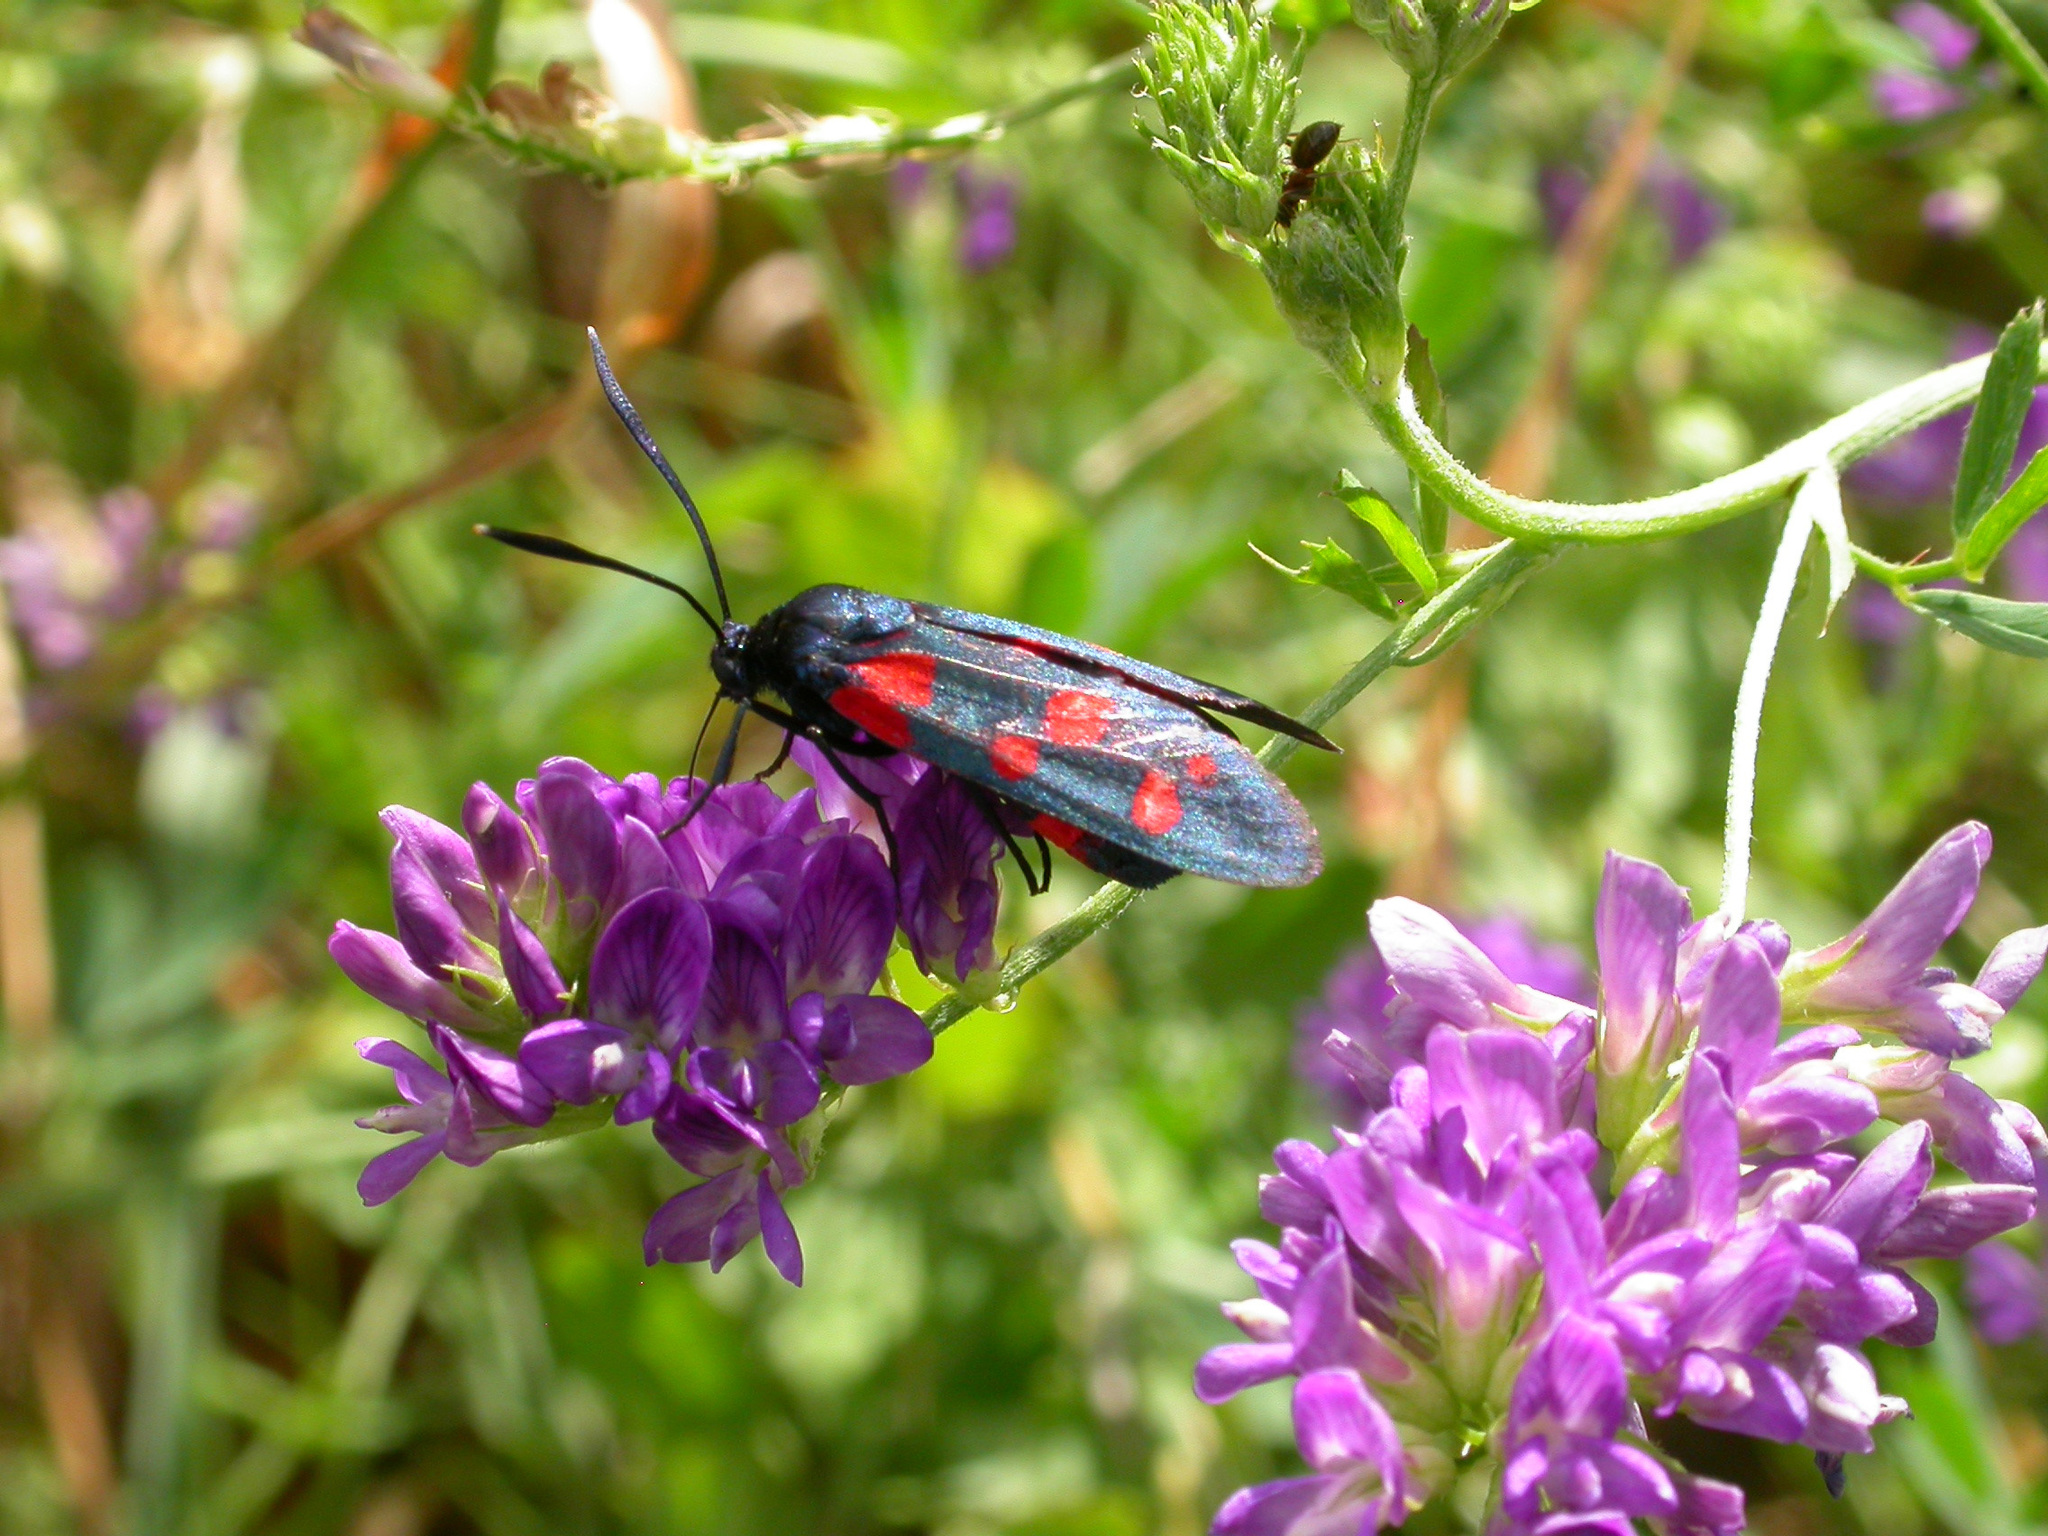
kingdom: Animalia
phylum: Arthropoda
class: Insecta
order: Lepidoptera
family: Zygaenidae
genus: Zygaena
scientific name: Zygaena ephialtes
